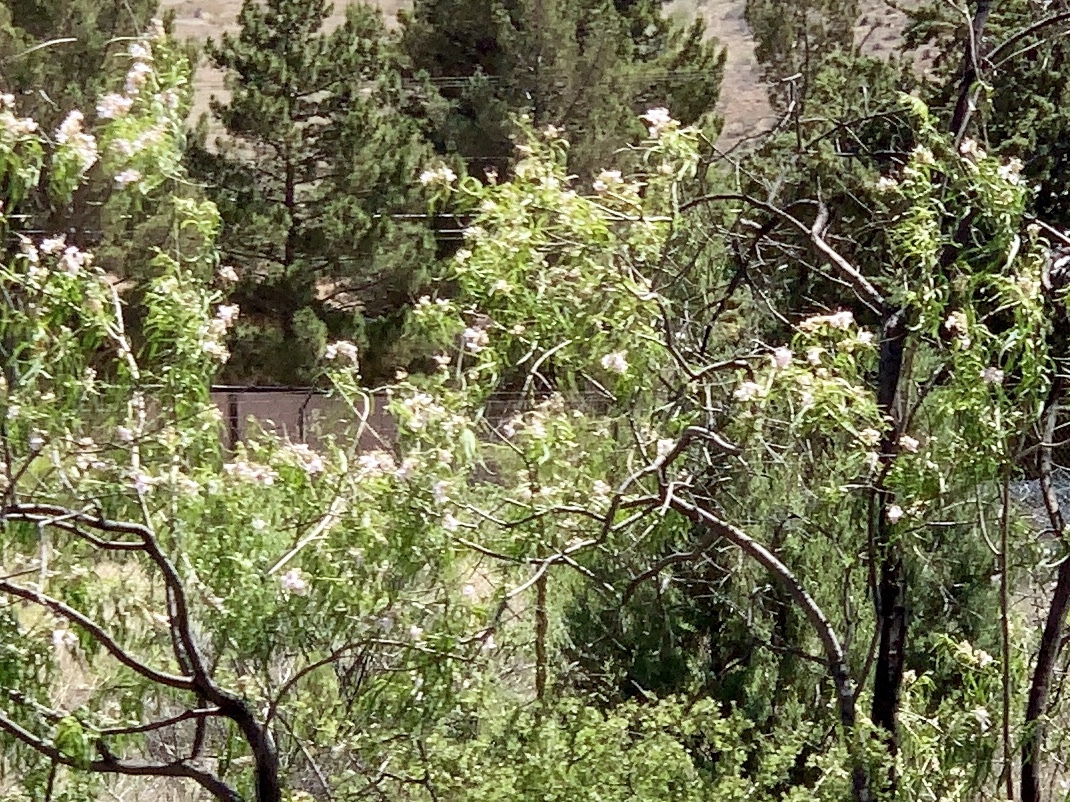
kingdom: Plantae
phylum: Tracheophyta
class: Magnoliopsida
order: Lamiales
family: Bignoniaceae
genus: Chilopsis
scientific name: Chilopsis linearis
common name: Desert-willow
